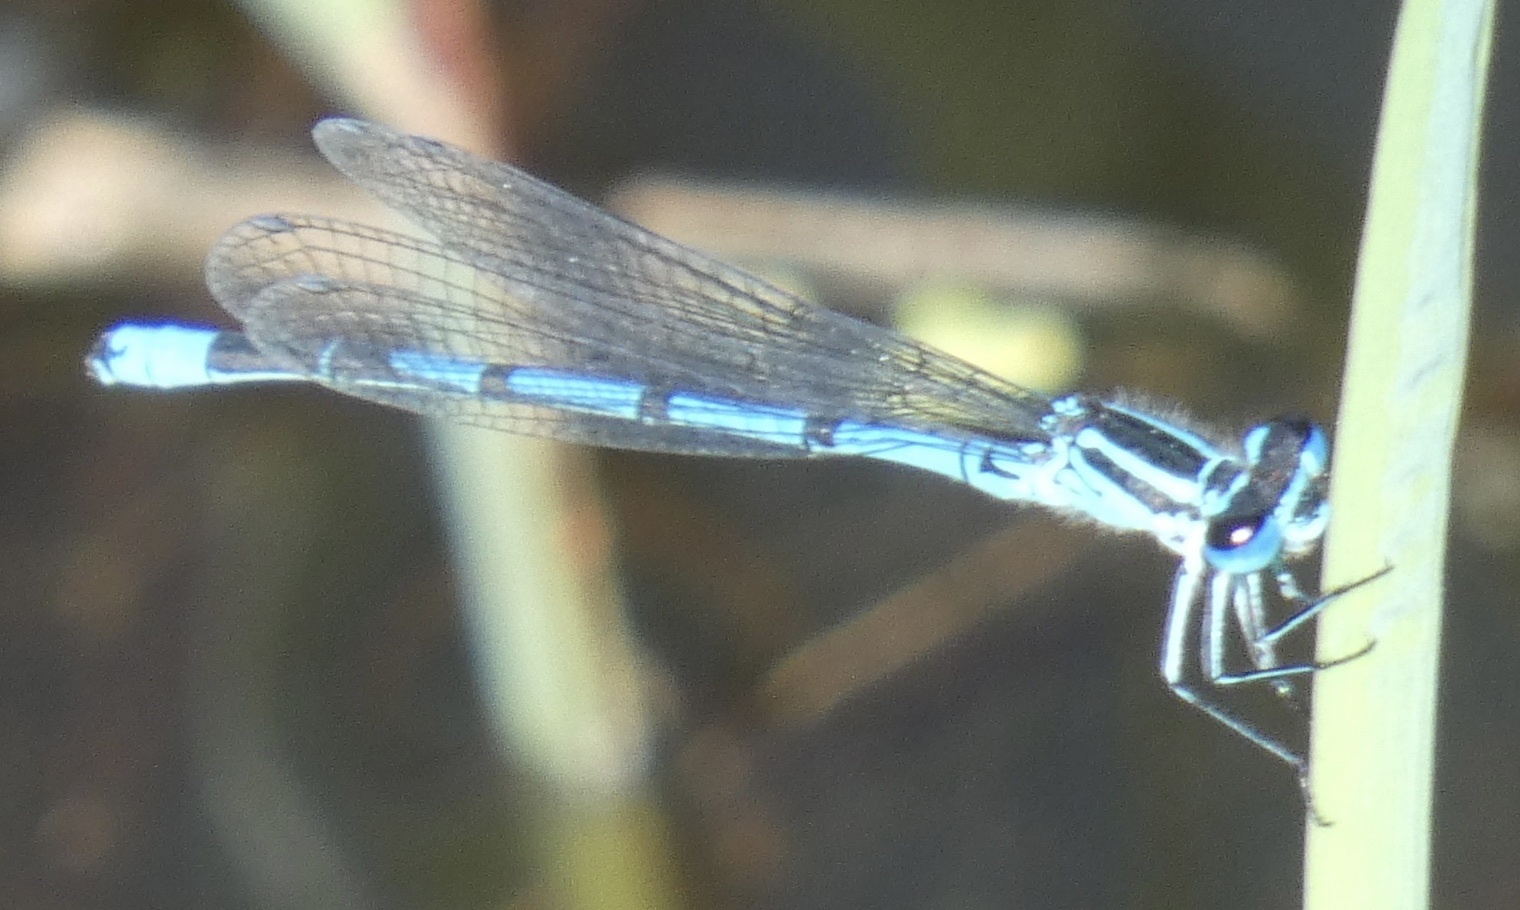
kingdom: Animalia
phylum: Arthropoda
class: Insecta
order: Odonata
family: Coenagrionidae
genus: Coenagrion
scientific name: Coenagrion puella
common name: Azure damselfly
